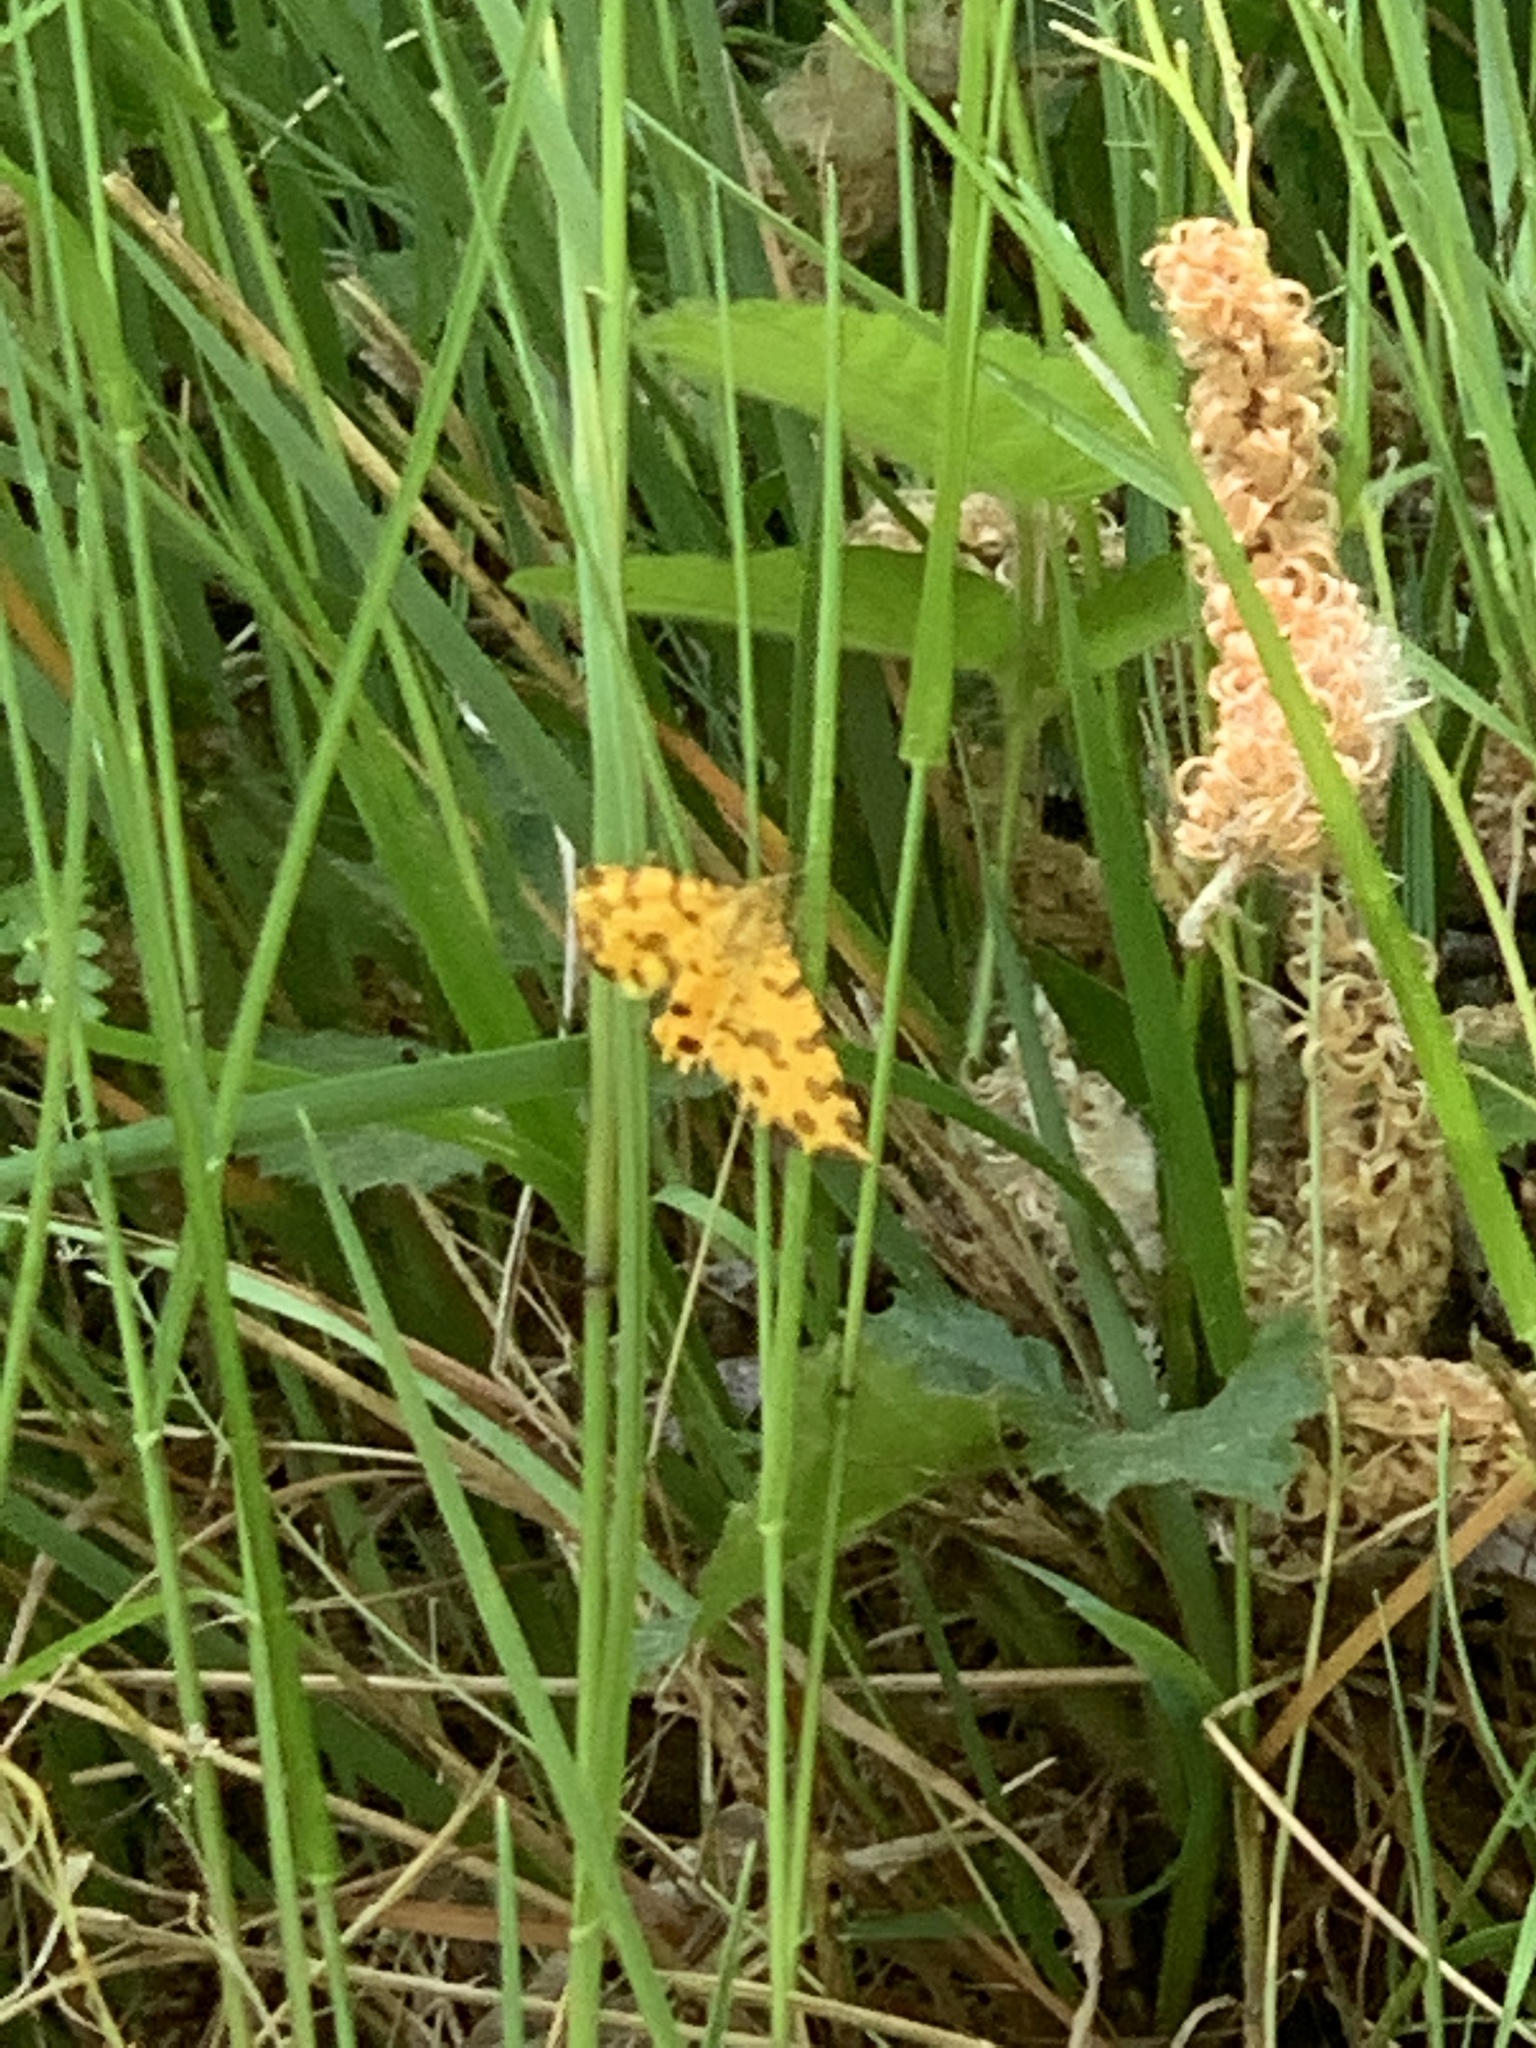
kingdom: Animalia
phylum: Arthropoda
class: Insecta
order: Lepidoptera
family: Geometridae
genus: Pseudopanthera
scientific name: Pseudopanthera macularia
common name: Speckled yellow
